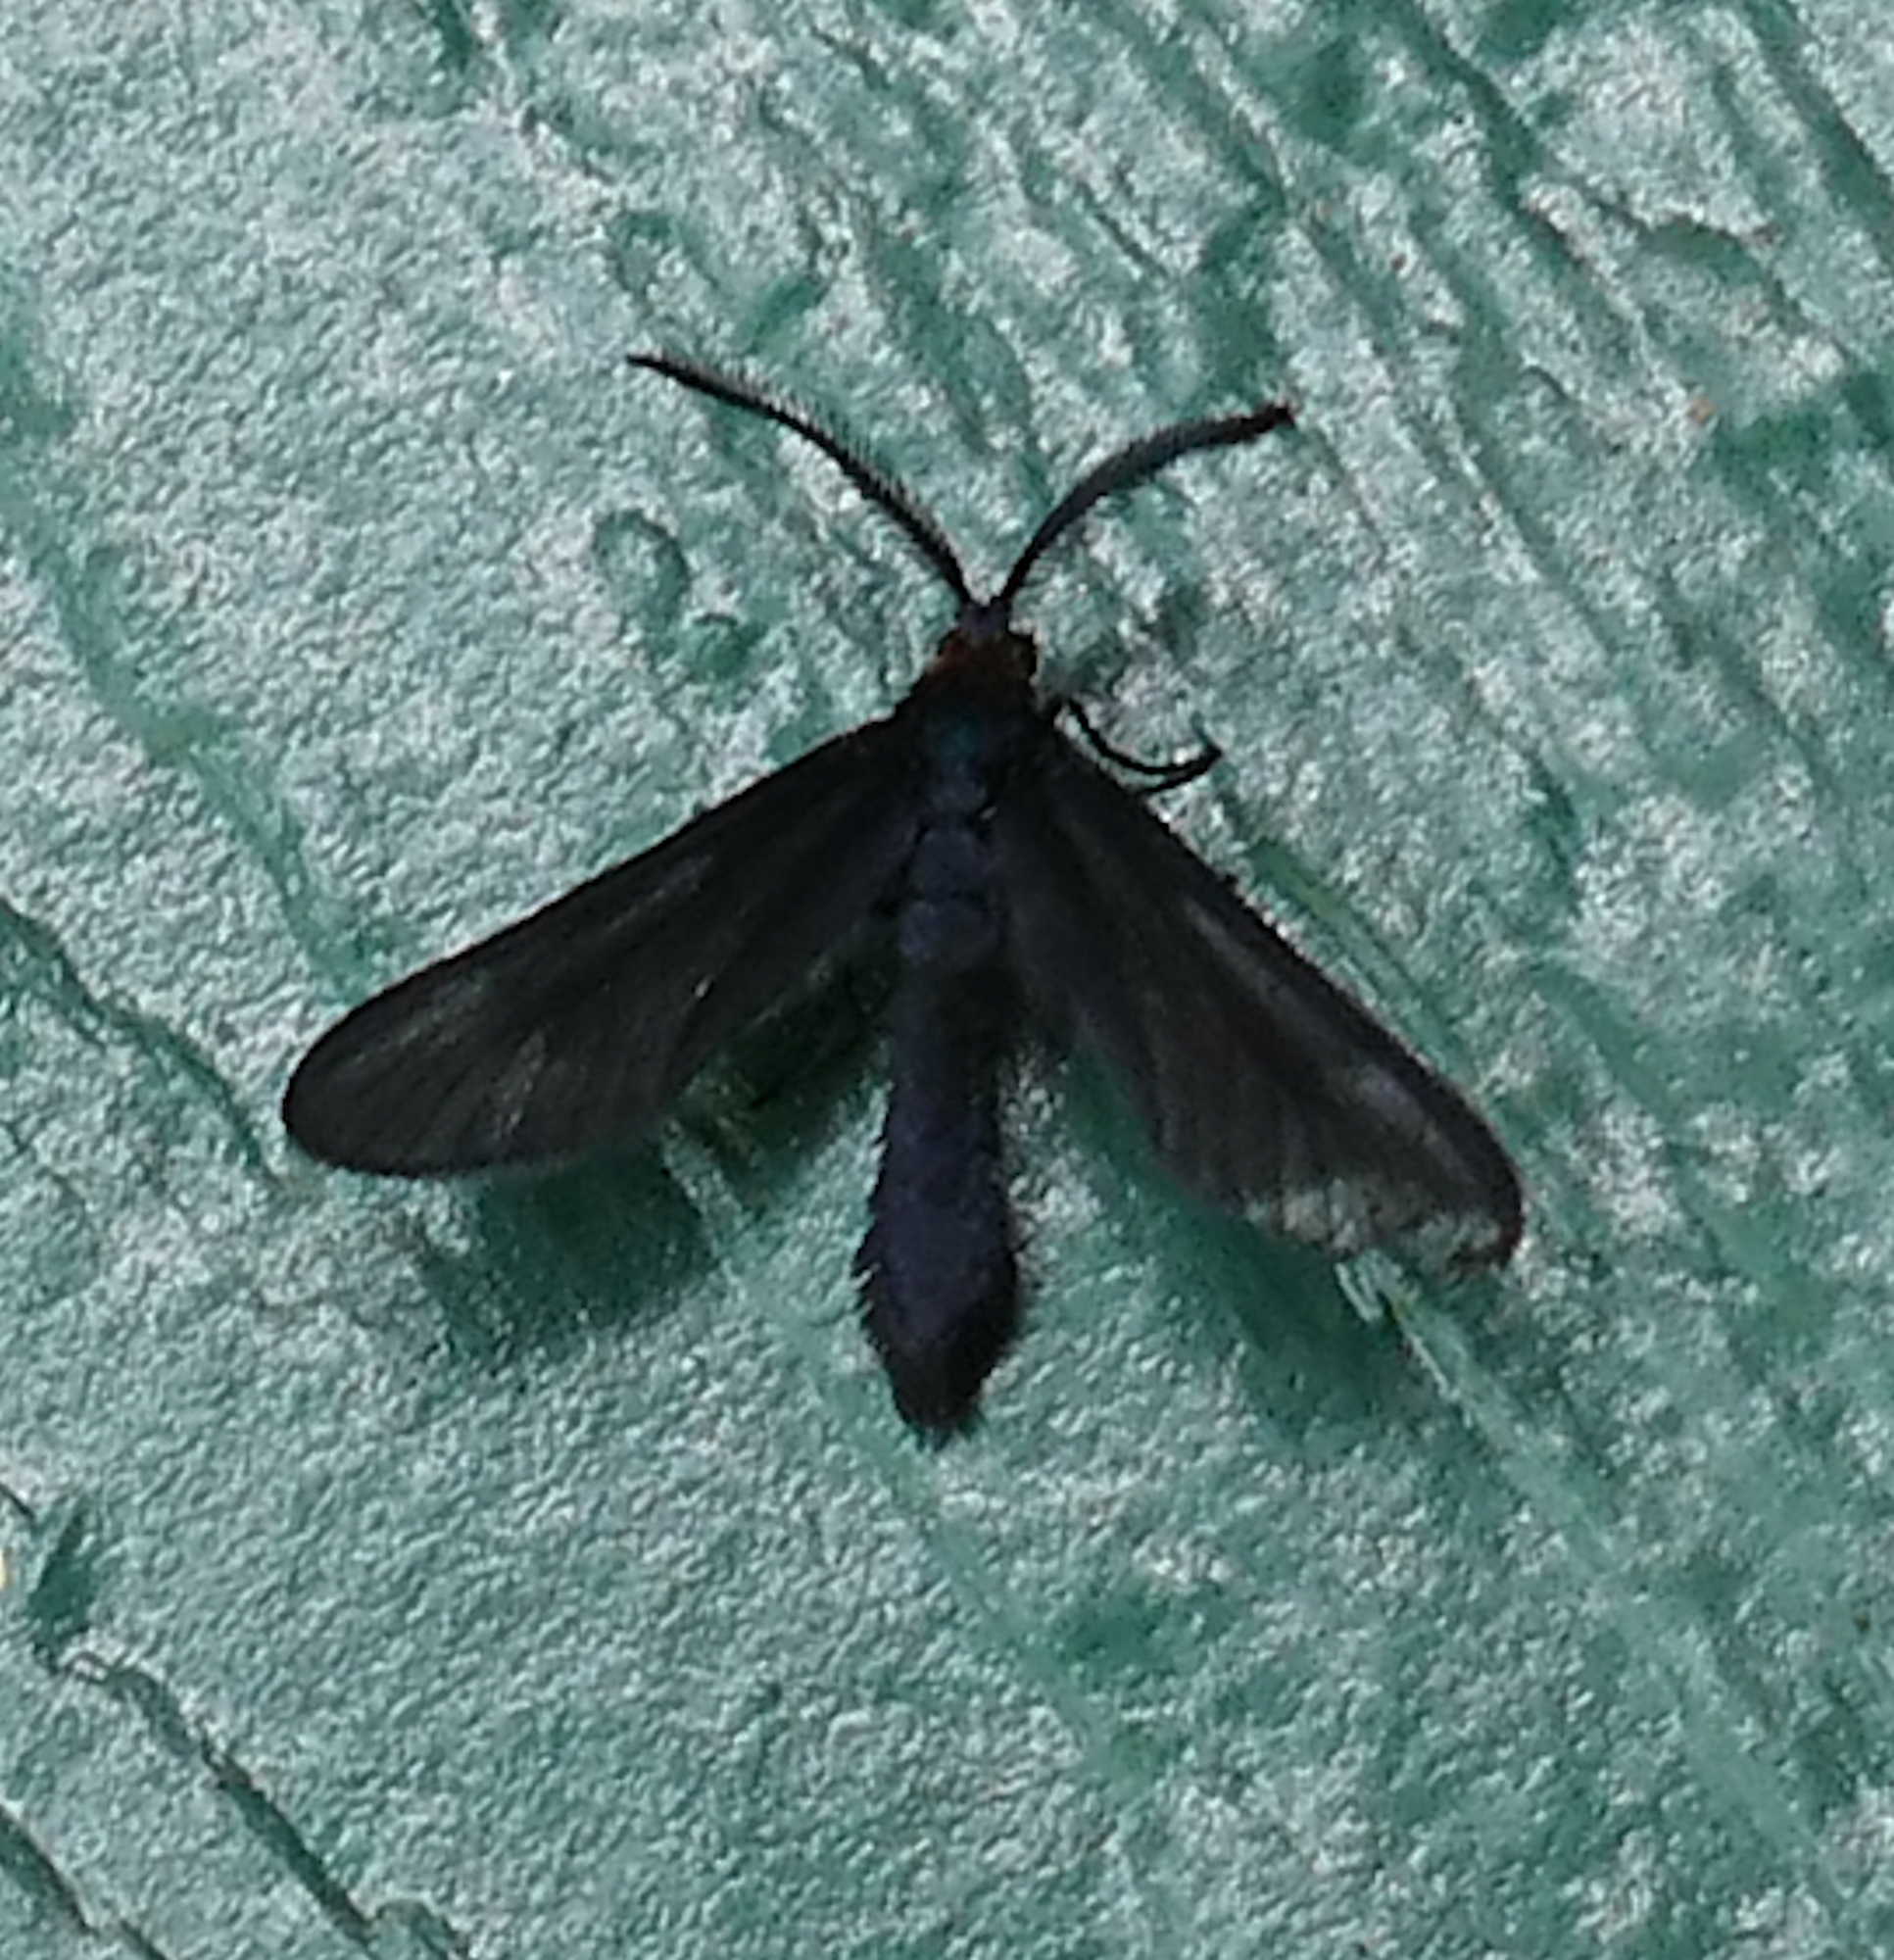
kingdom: Animalia
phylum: Arthropoda
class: Insecta
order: Lepidoptera
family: Zygaenidae
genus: Harrisina
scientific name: Harrisina coracina
